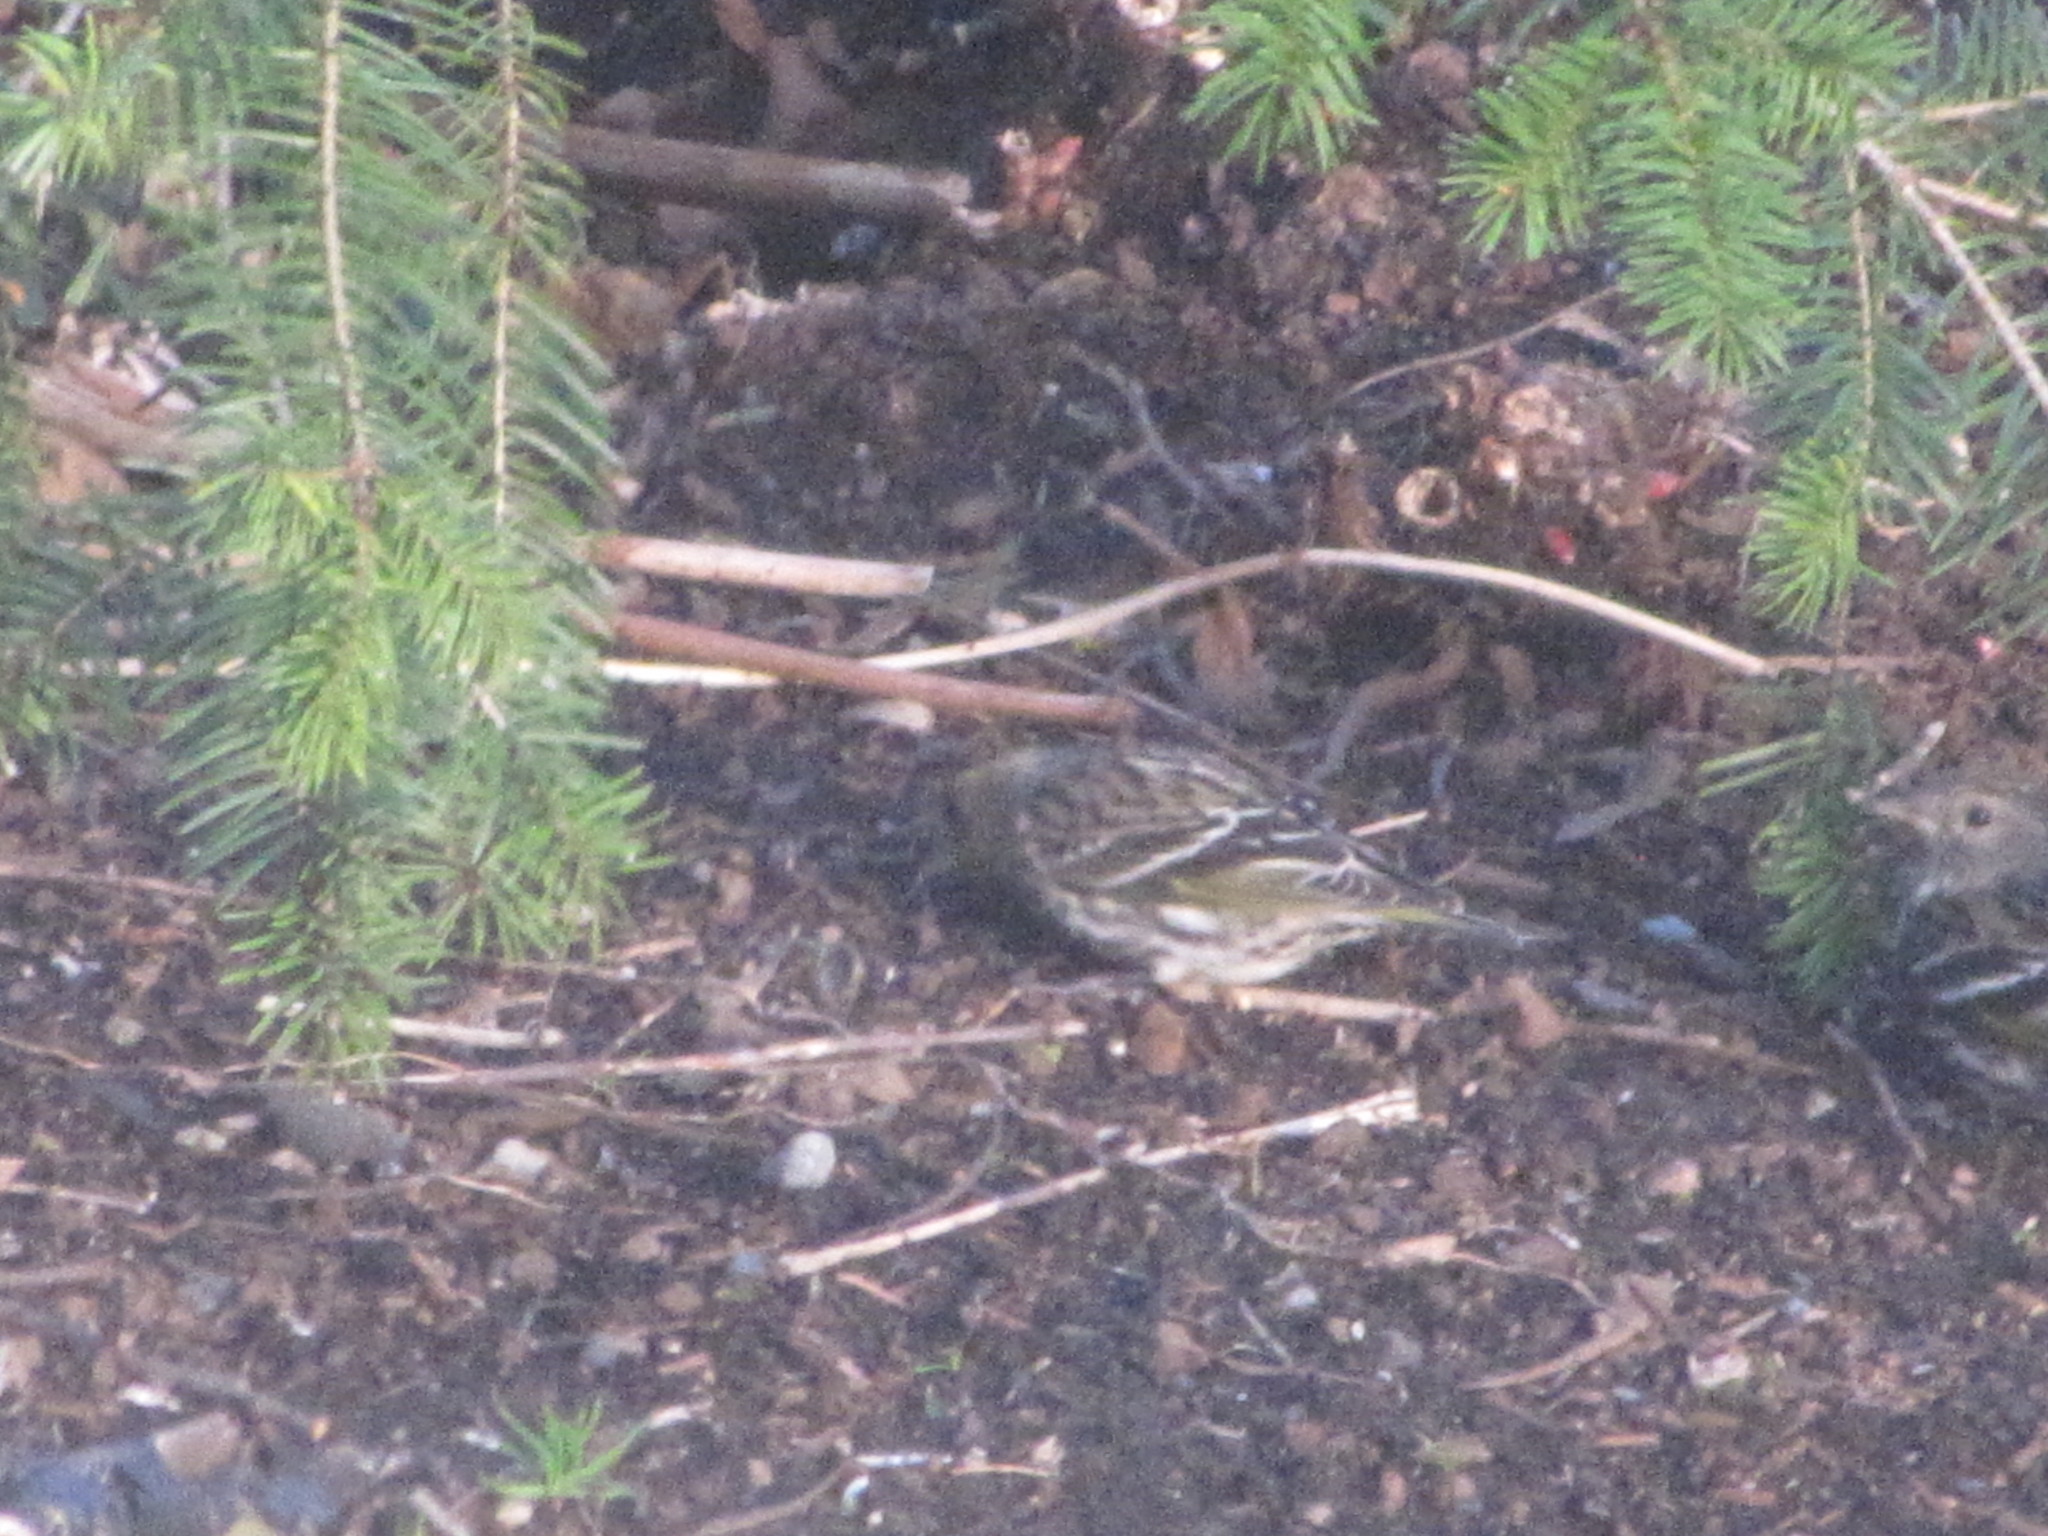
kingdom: Animalia
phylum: Chordata
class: Aves
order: Passeriformes
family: Fringillidae
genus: Spinus
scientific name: Spinus pinus
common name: Pine siskin
